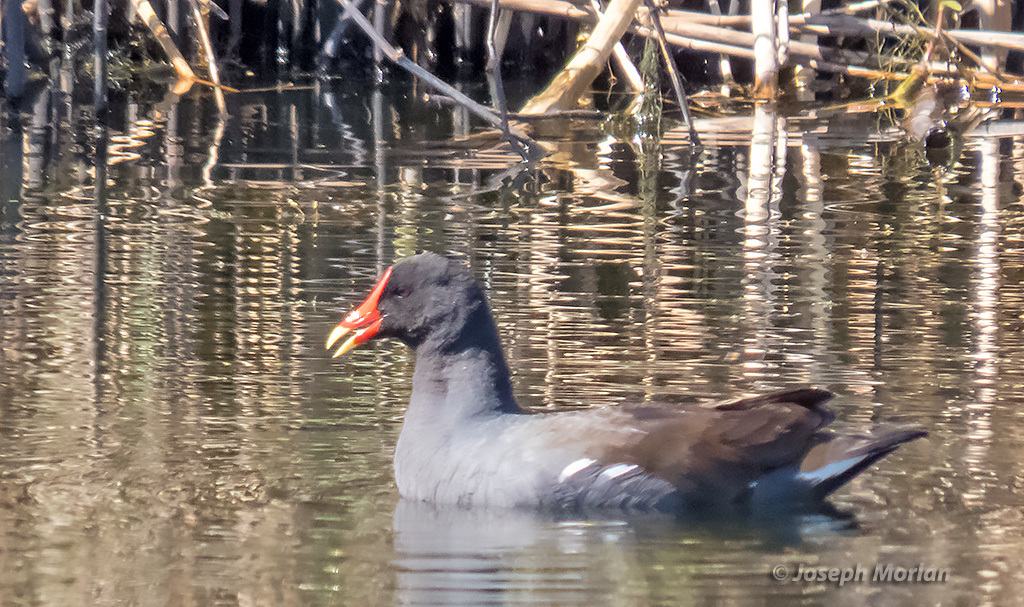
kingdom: Animalia
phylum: Chordata
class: Aves
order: Gruiformes
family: Rallidae
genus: Gallinula
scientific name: Gallinula chloropus
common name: Common moorhen
